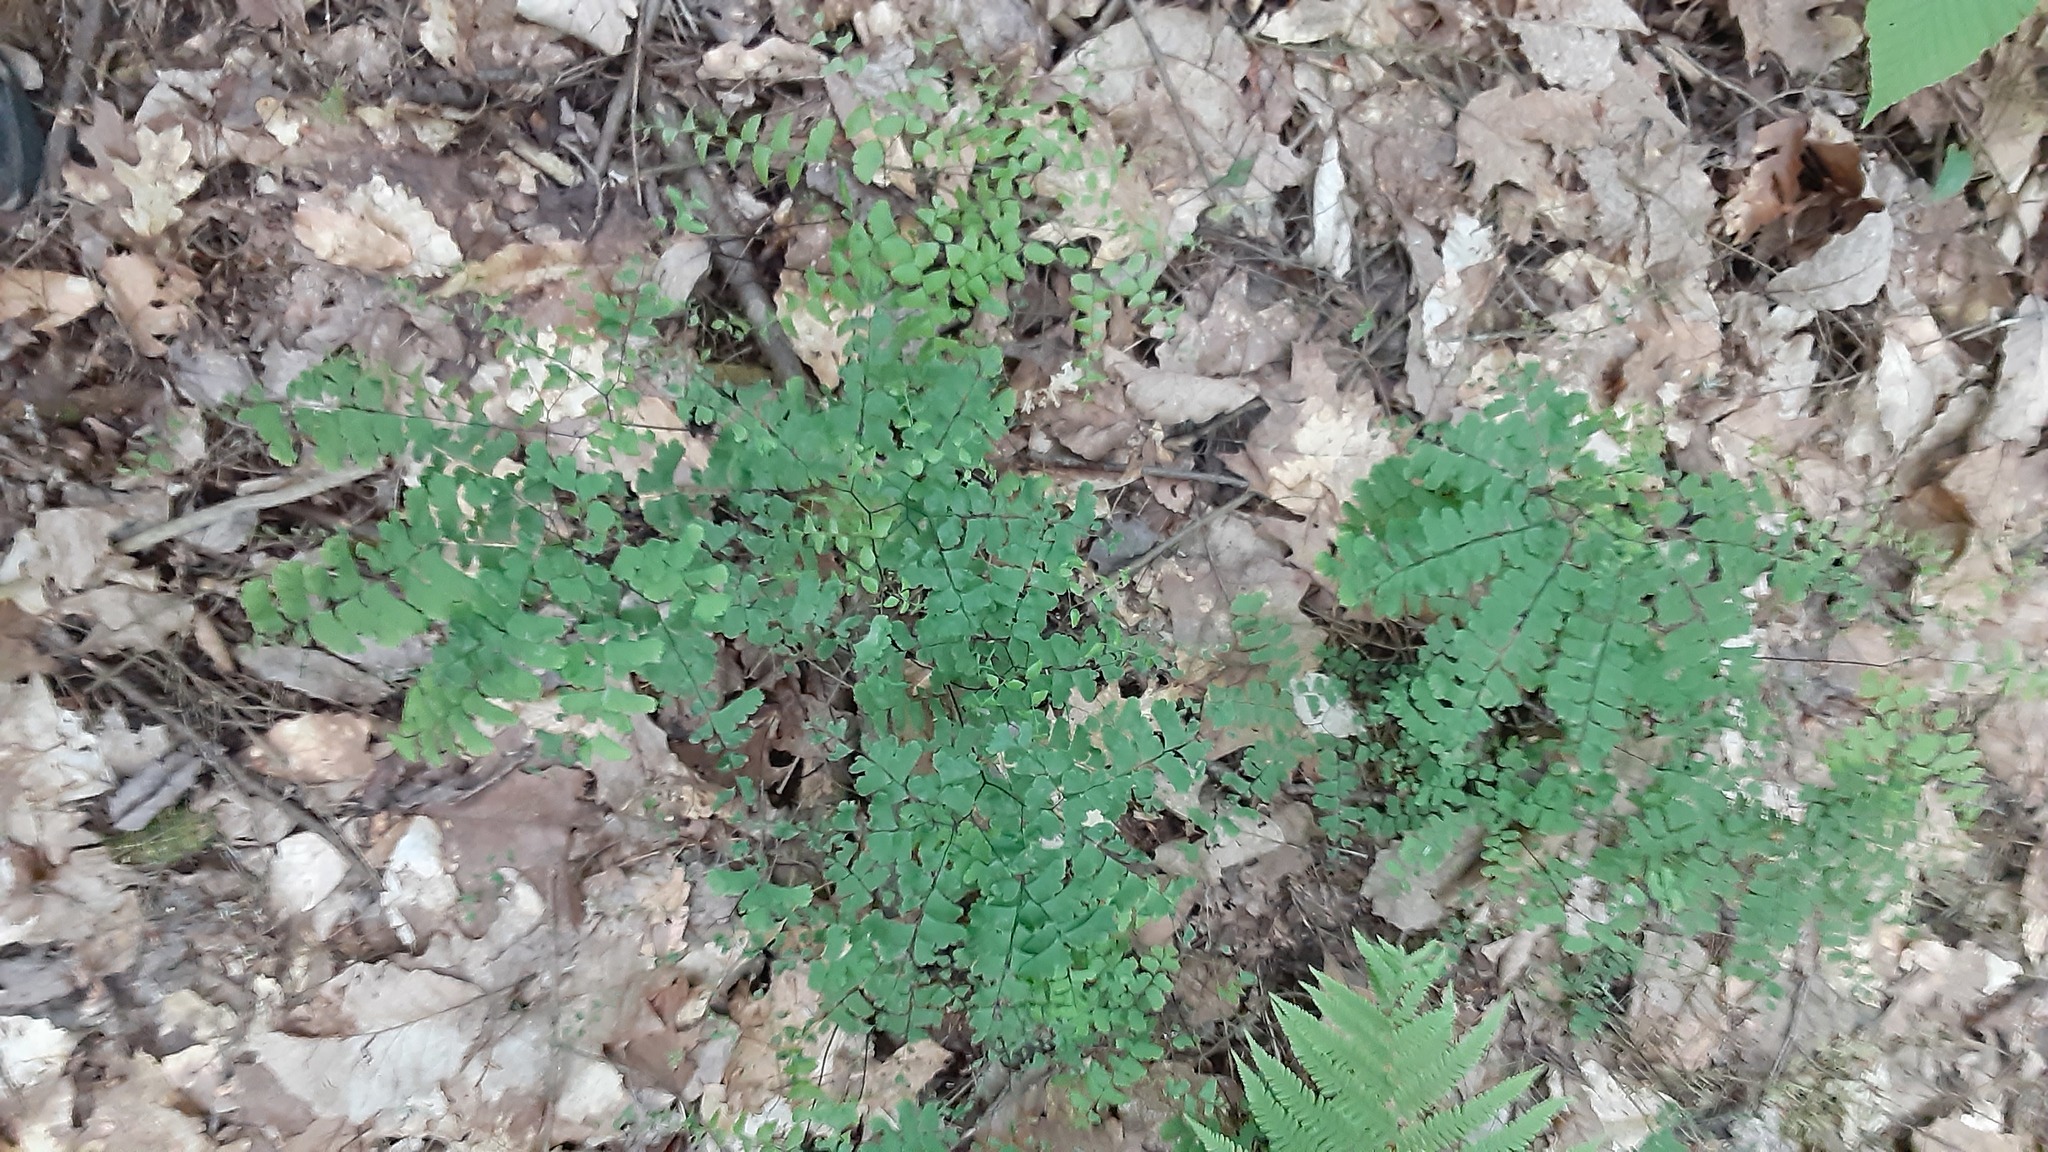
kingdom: Plantae
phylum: Tracheophyta
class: Polypodiopsida
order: Polypodiales
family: Pteridaceae
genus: Adiantum
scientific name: Adiantum pedatum
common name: Five-finger fern
